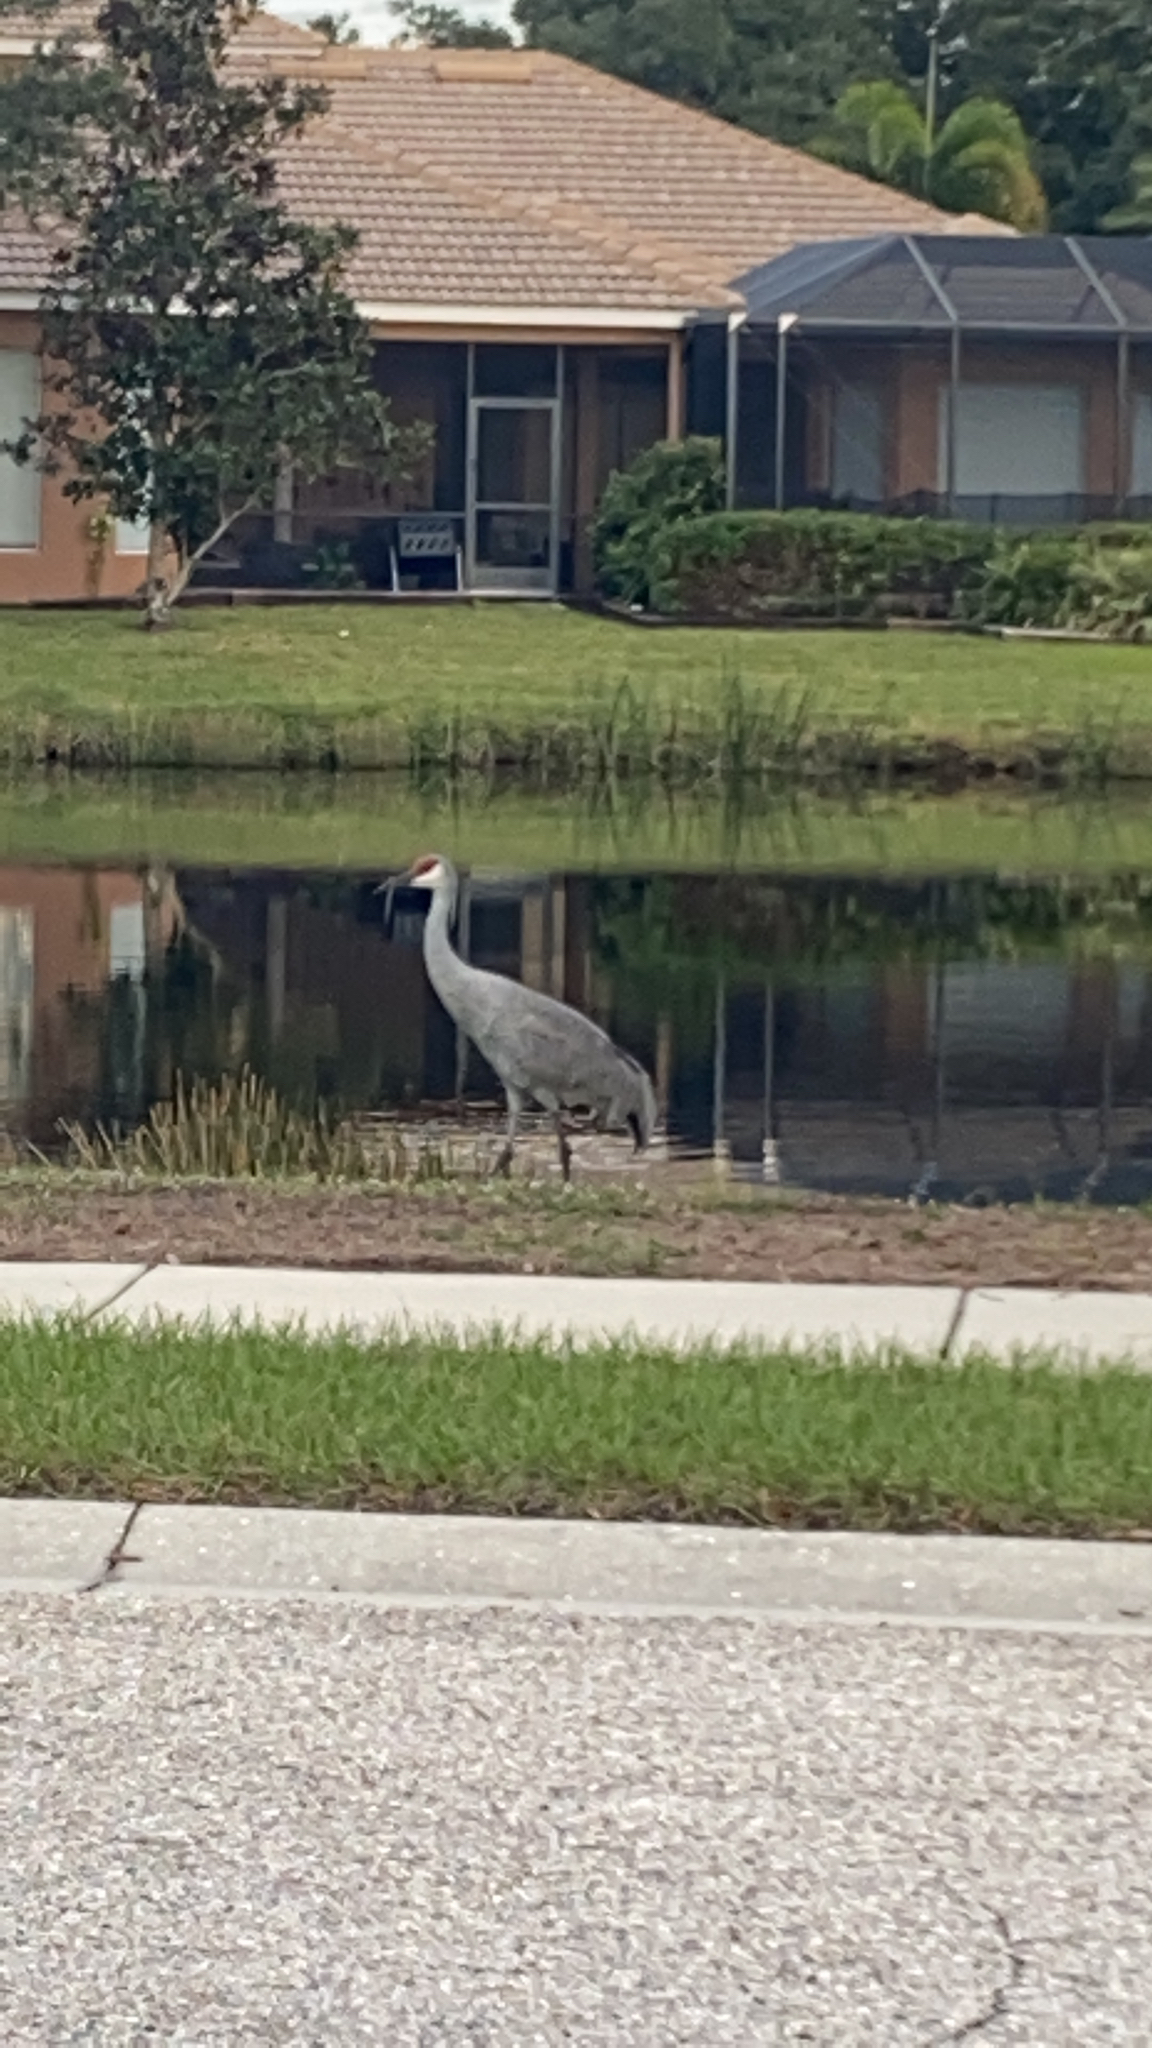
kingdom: Animalia
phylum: Chordata
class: Aves
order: Gruiformes
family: Gruidae
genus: Grus
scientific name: Grus canadensis
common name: Sandhill crane
